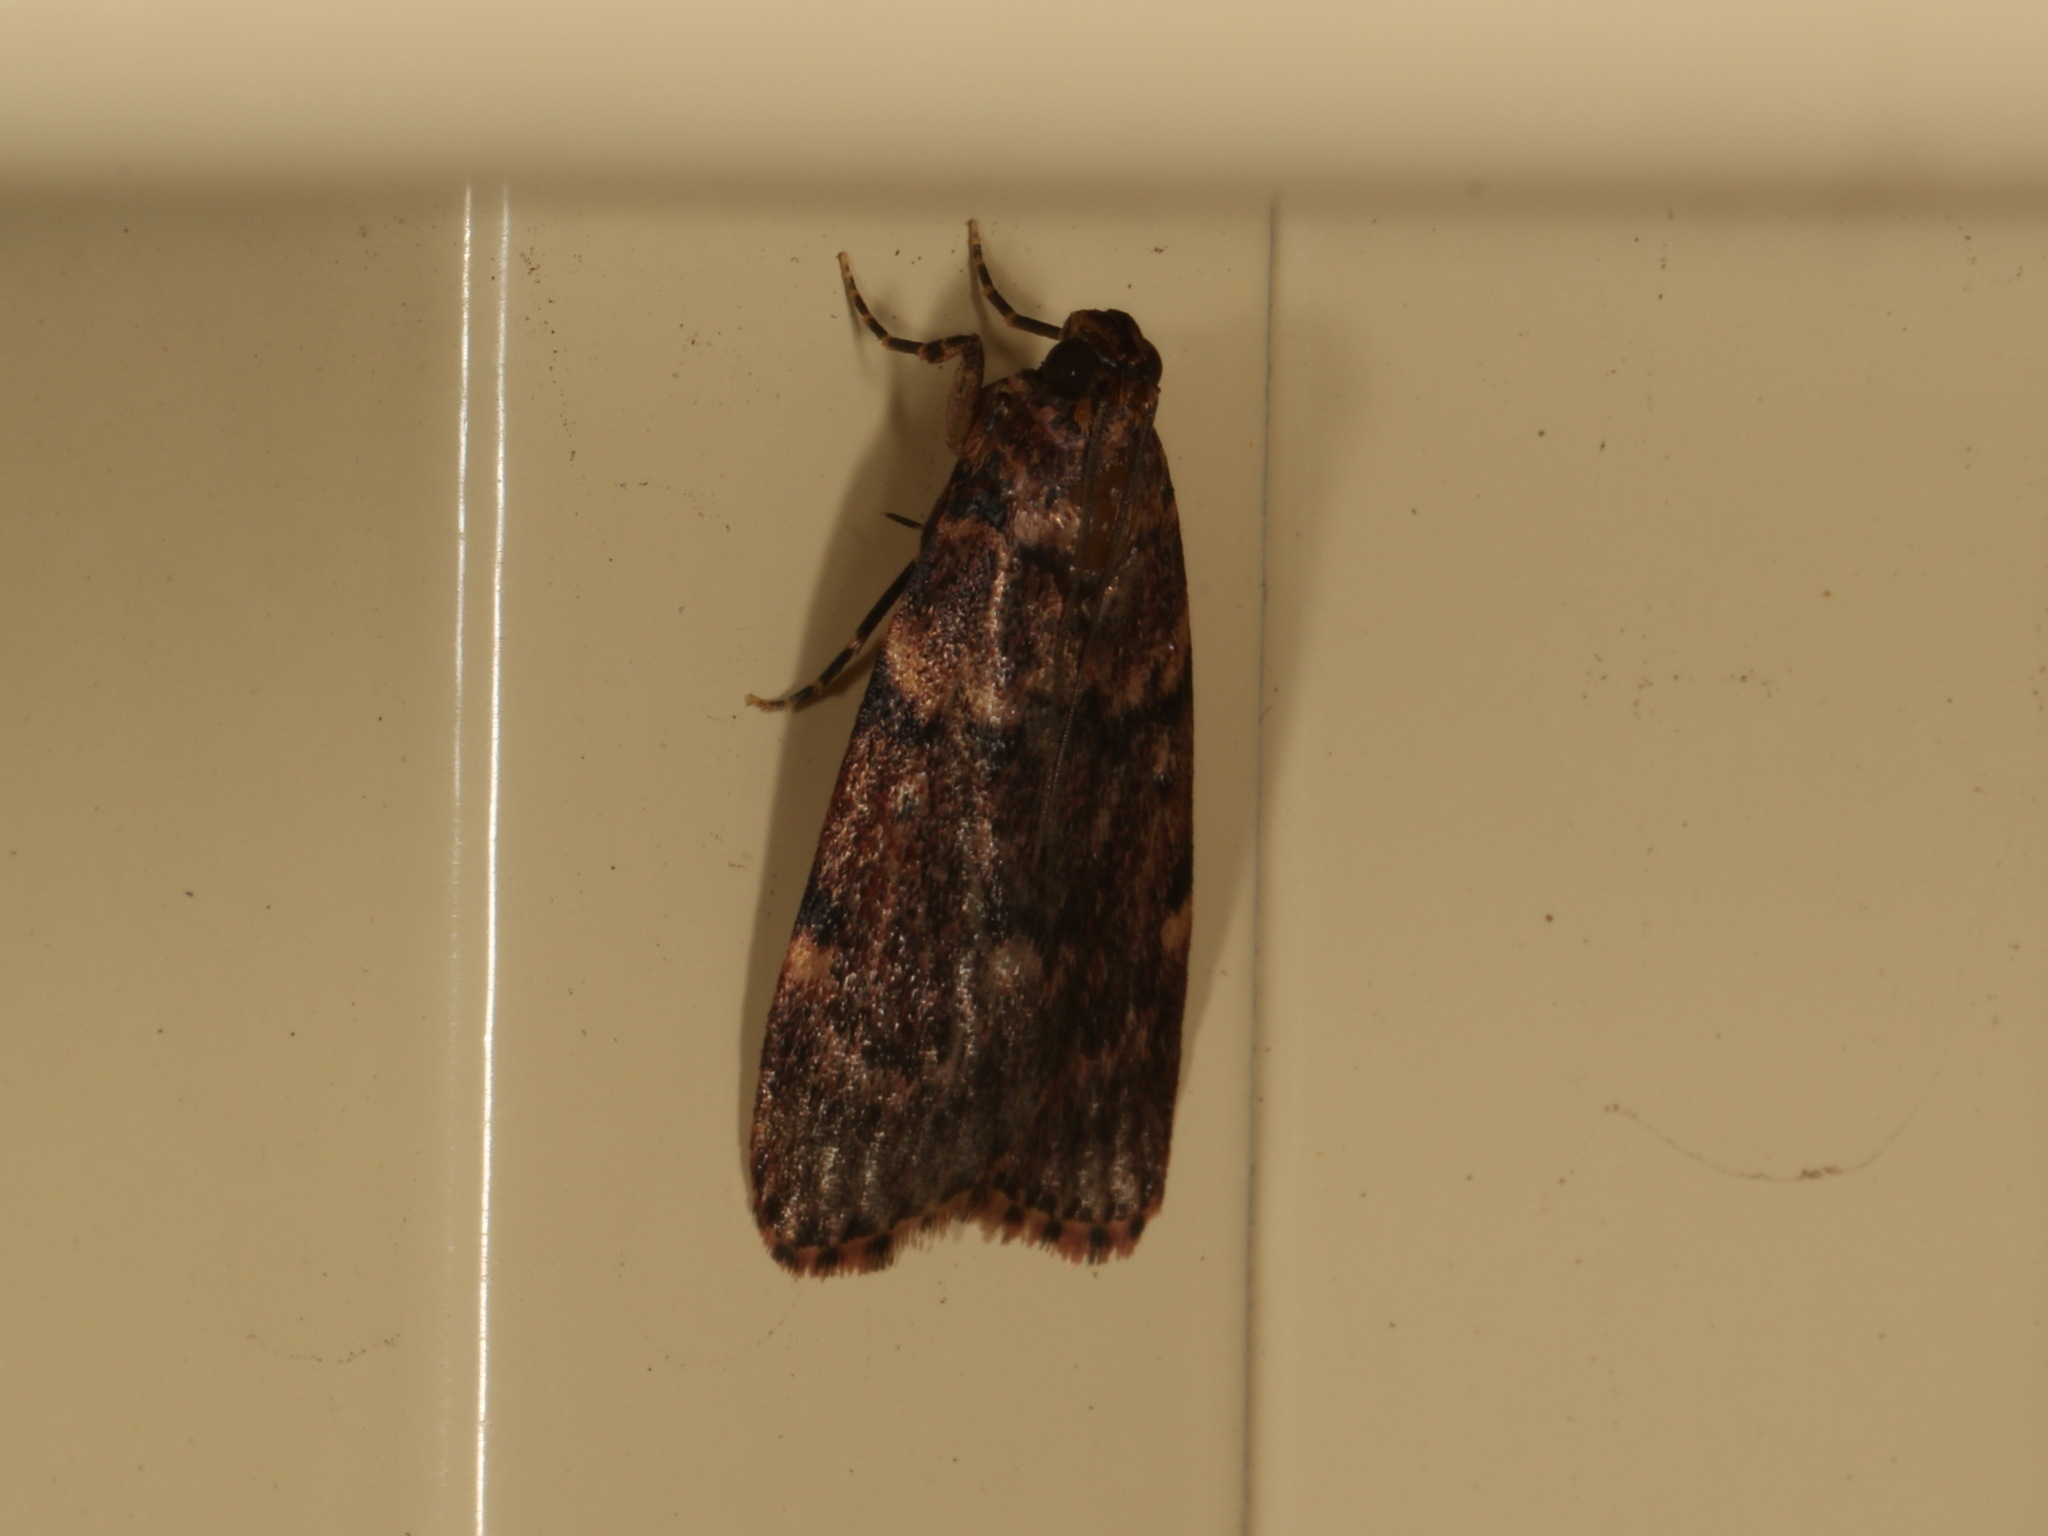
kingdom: Animalia
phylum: Arthropoda
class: Insecta
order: Lepidoptera
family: Pyralidae
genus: Mimaglossa
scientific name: Mimaglossa nauplialis
